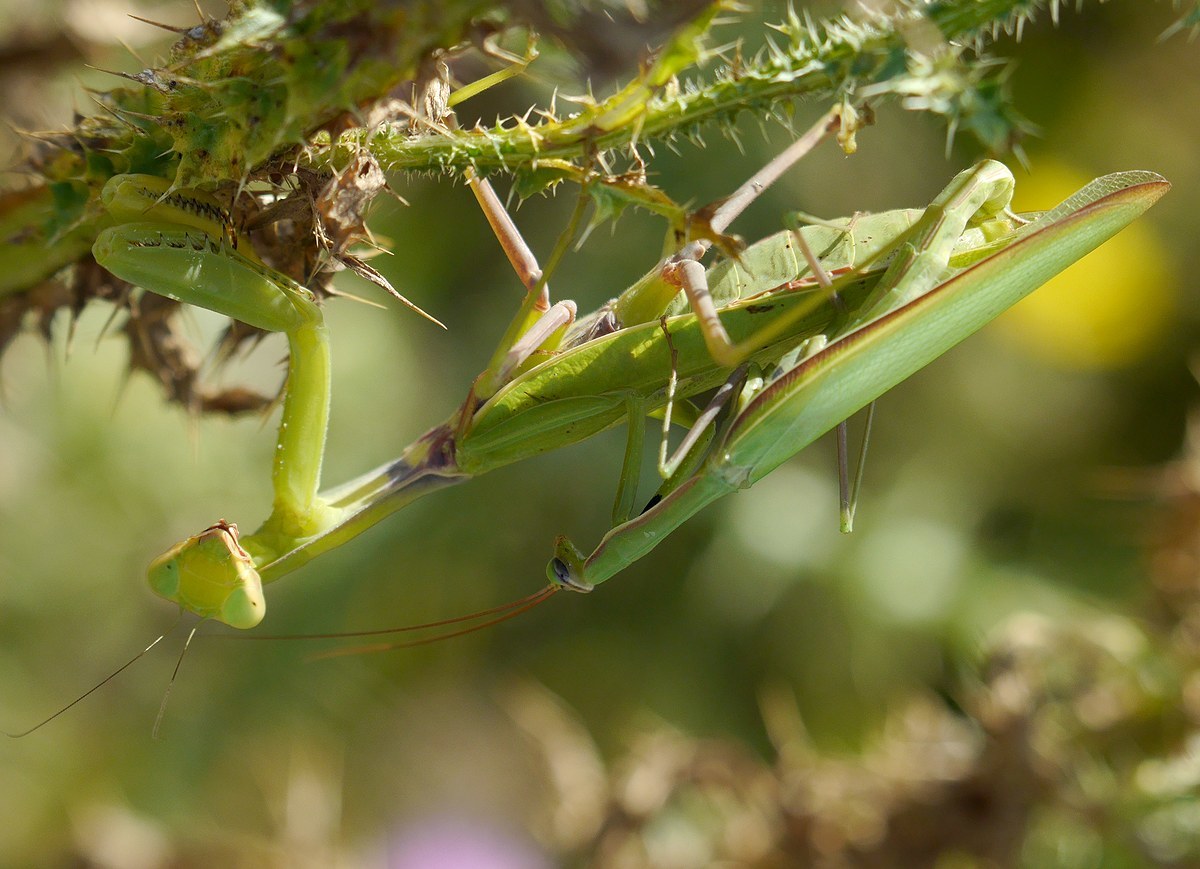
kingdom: Animalia
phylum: Arthropoda
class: Insecta
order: Mantodea
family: Mantidae
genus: Mantis
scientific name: Mantis religiosa
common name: Praying mantis
